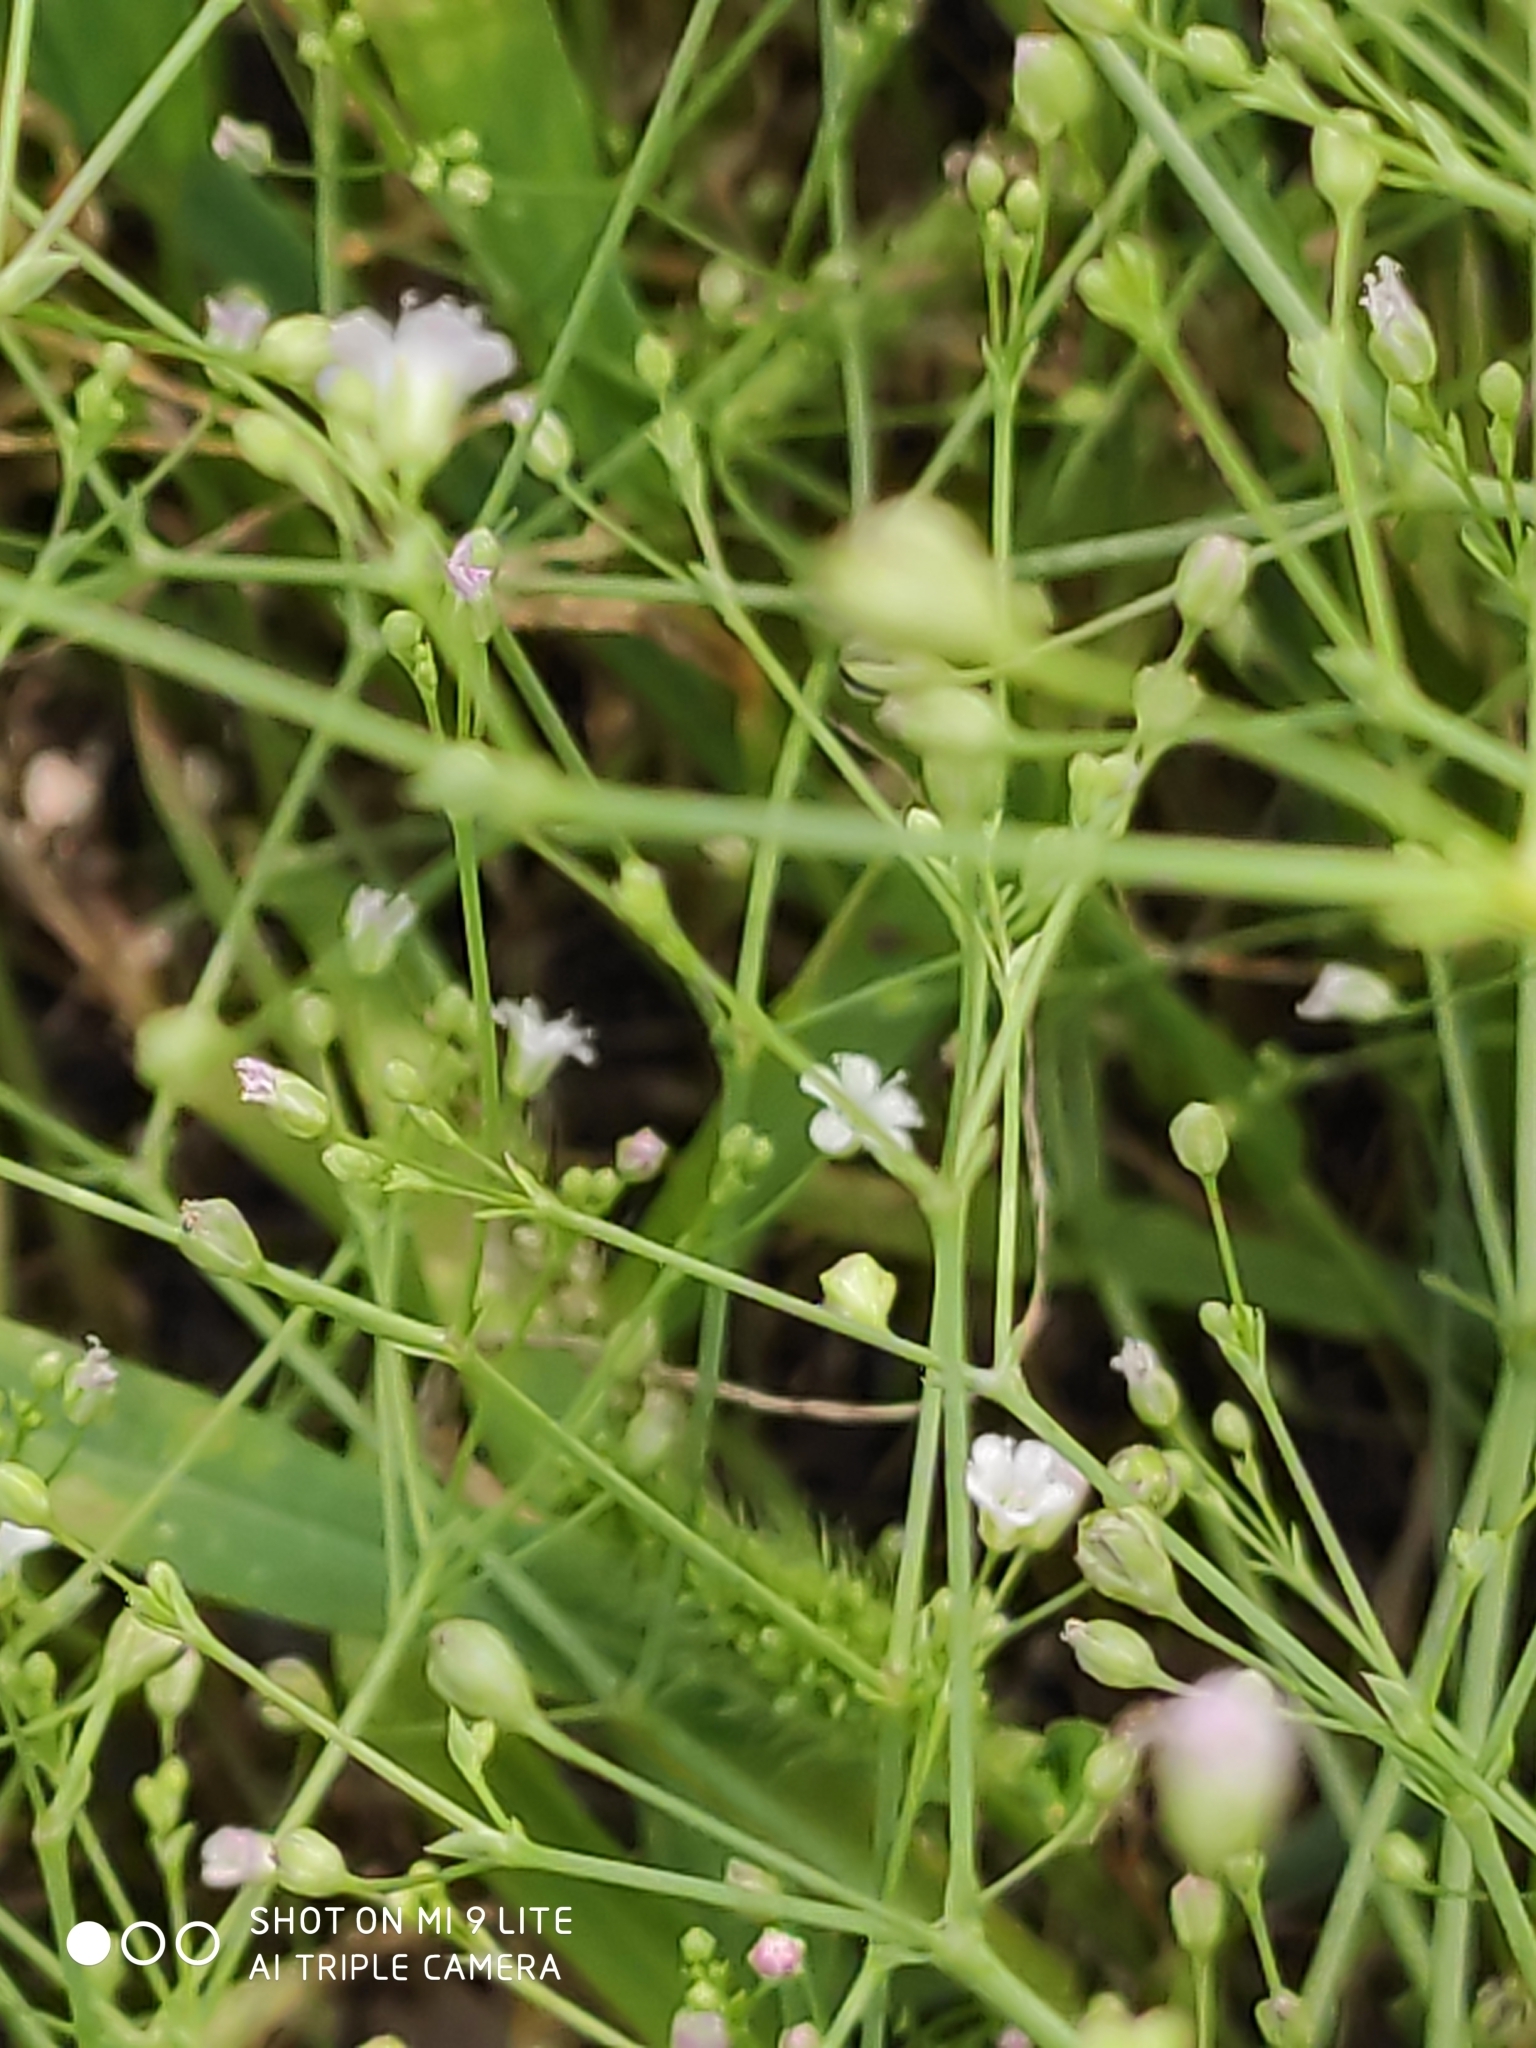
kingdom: Plantae
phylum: Tracheophyta
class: Magnoliopsida
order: Caryophyllales
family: Caryophyllaceae
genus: Gypsophila
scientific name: Gypsophila paniculata
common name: Baby's-breath
